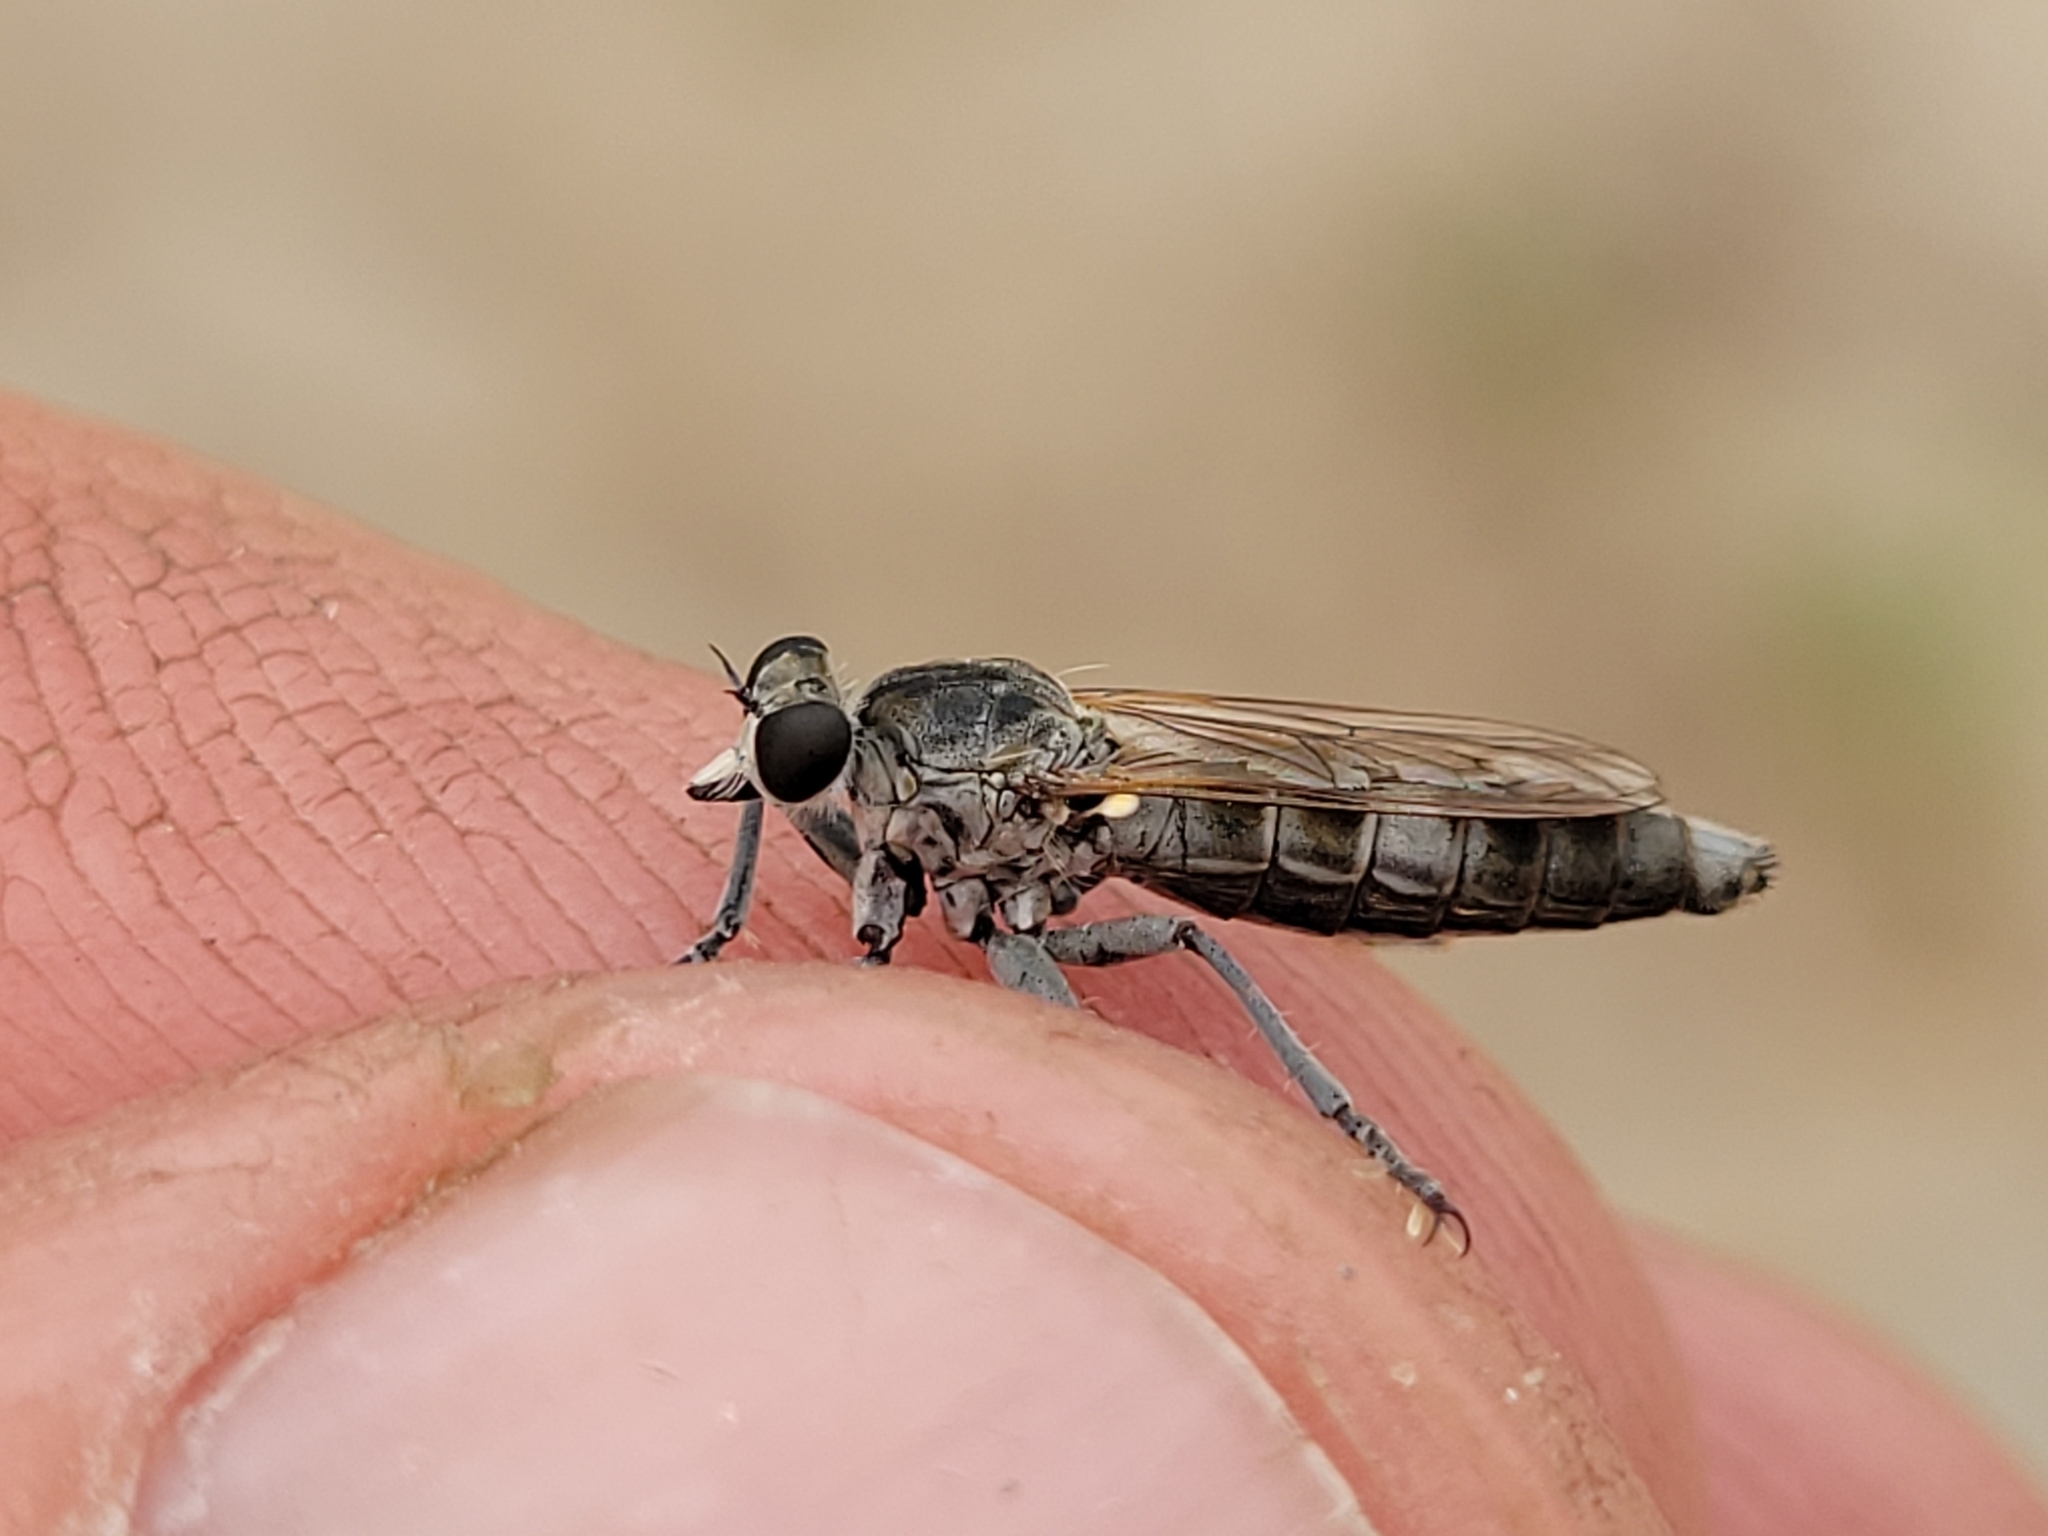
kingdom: Animalia
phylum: Arthropoda
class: Insecta
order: Diptera
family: Asilidae
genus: Stichopogon
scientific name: Stichopogon trifasciatus
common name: Three-banded robber fly
